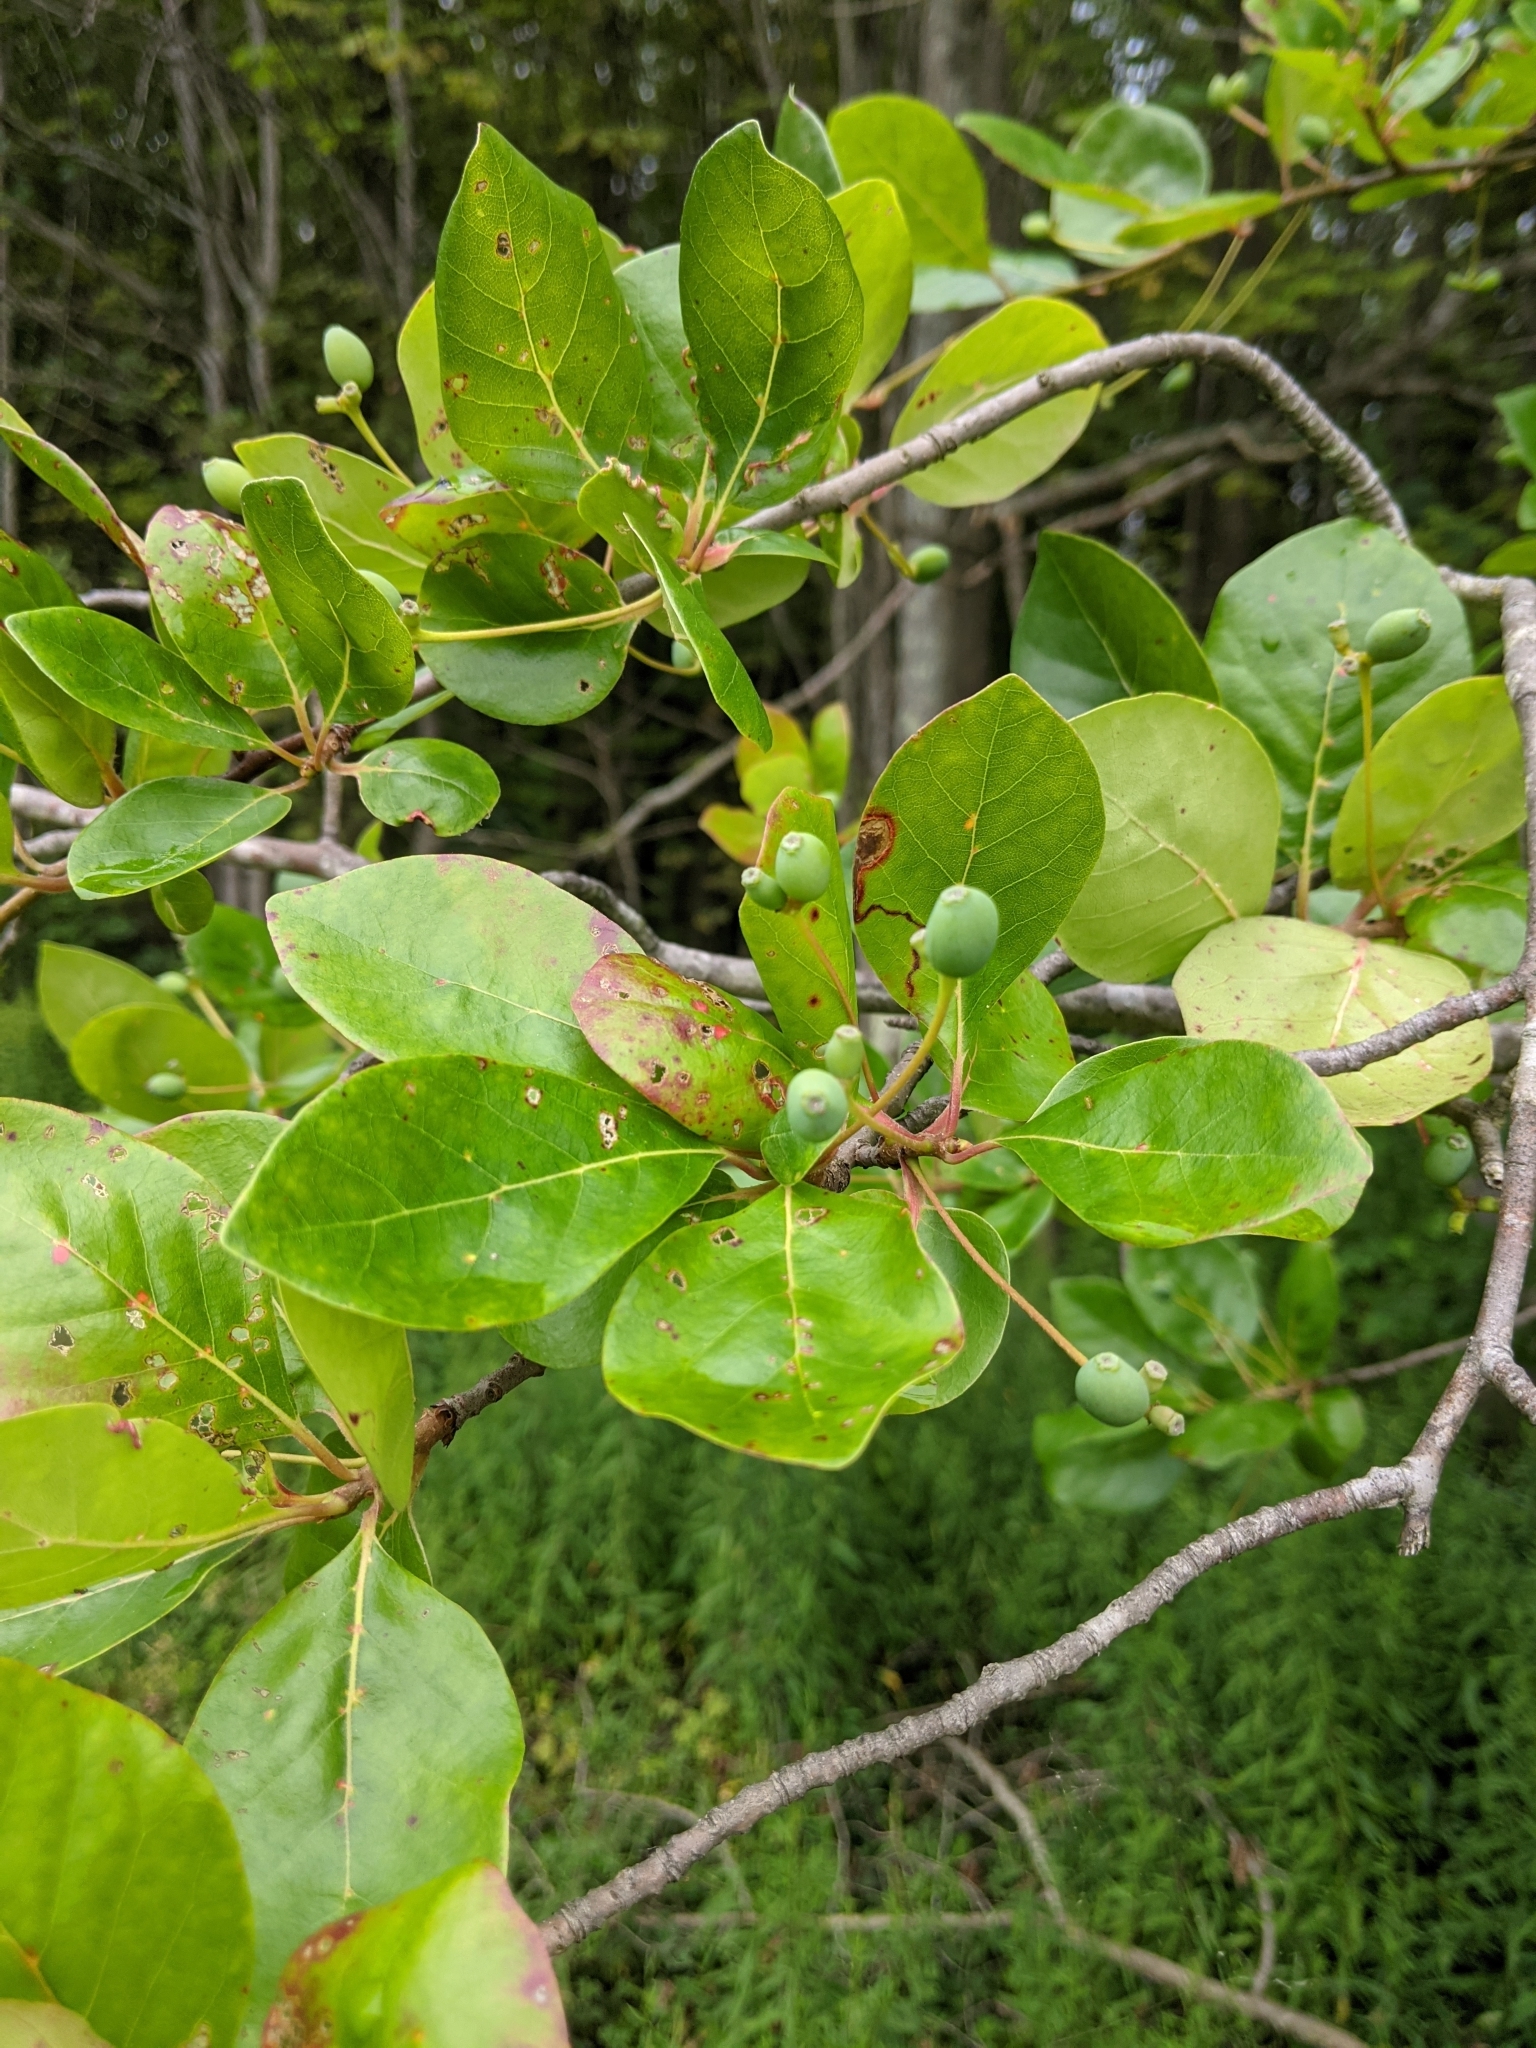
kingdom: Plantae
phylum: Tracheophyta
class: Magnoliopsida
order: Cornales
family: Nyssaceae
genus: Nyssa
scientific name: Nyssa sylvatica
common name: Black tupelo
